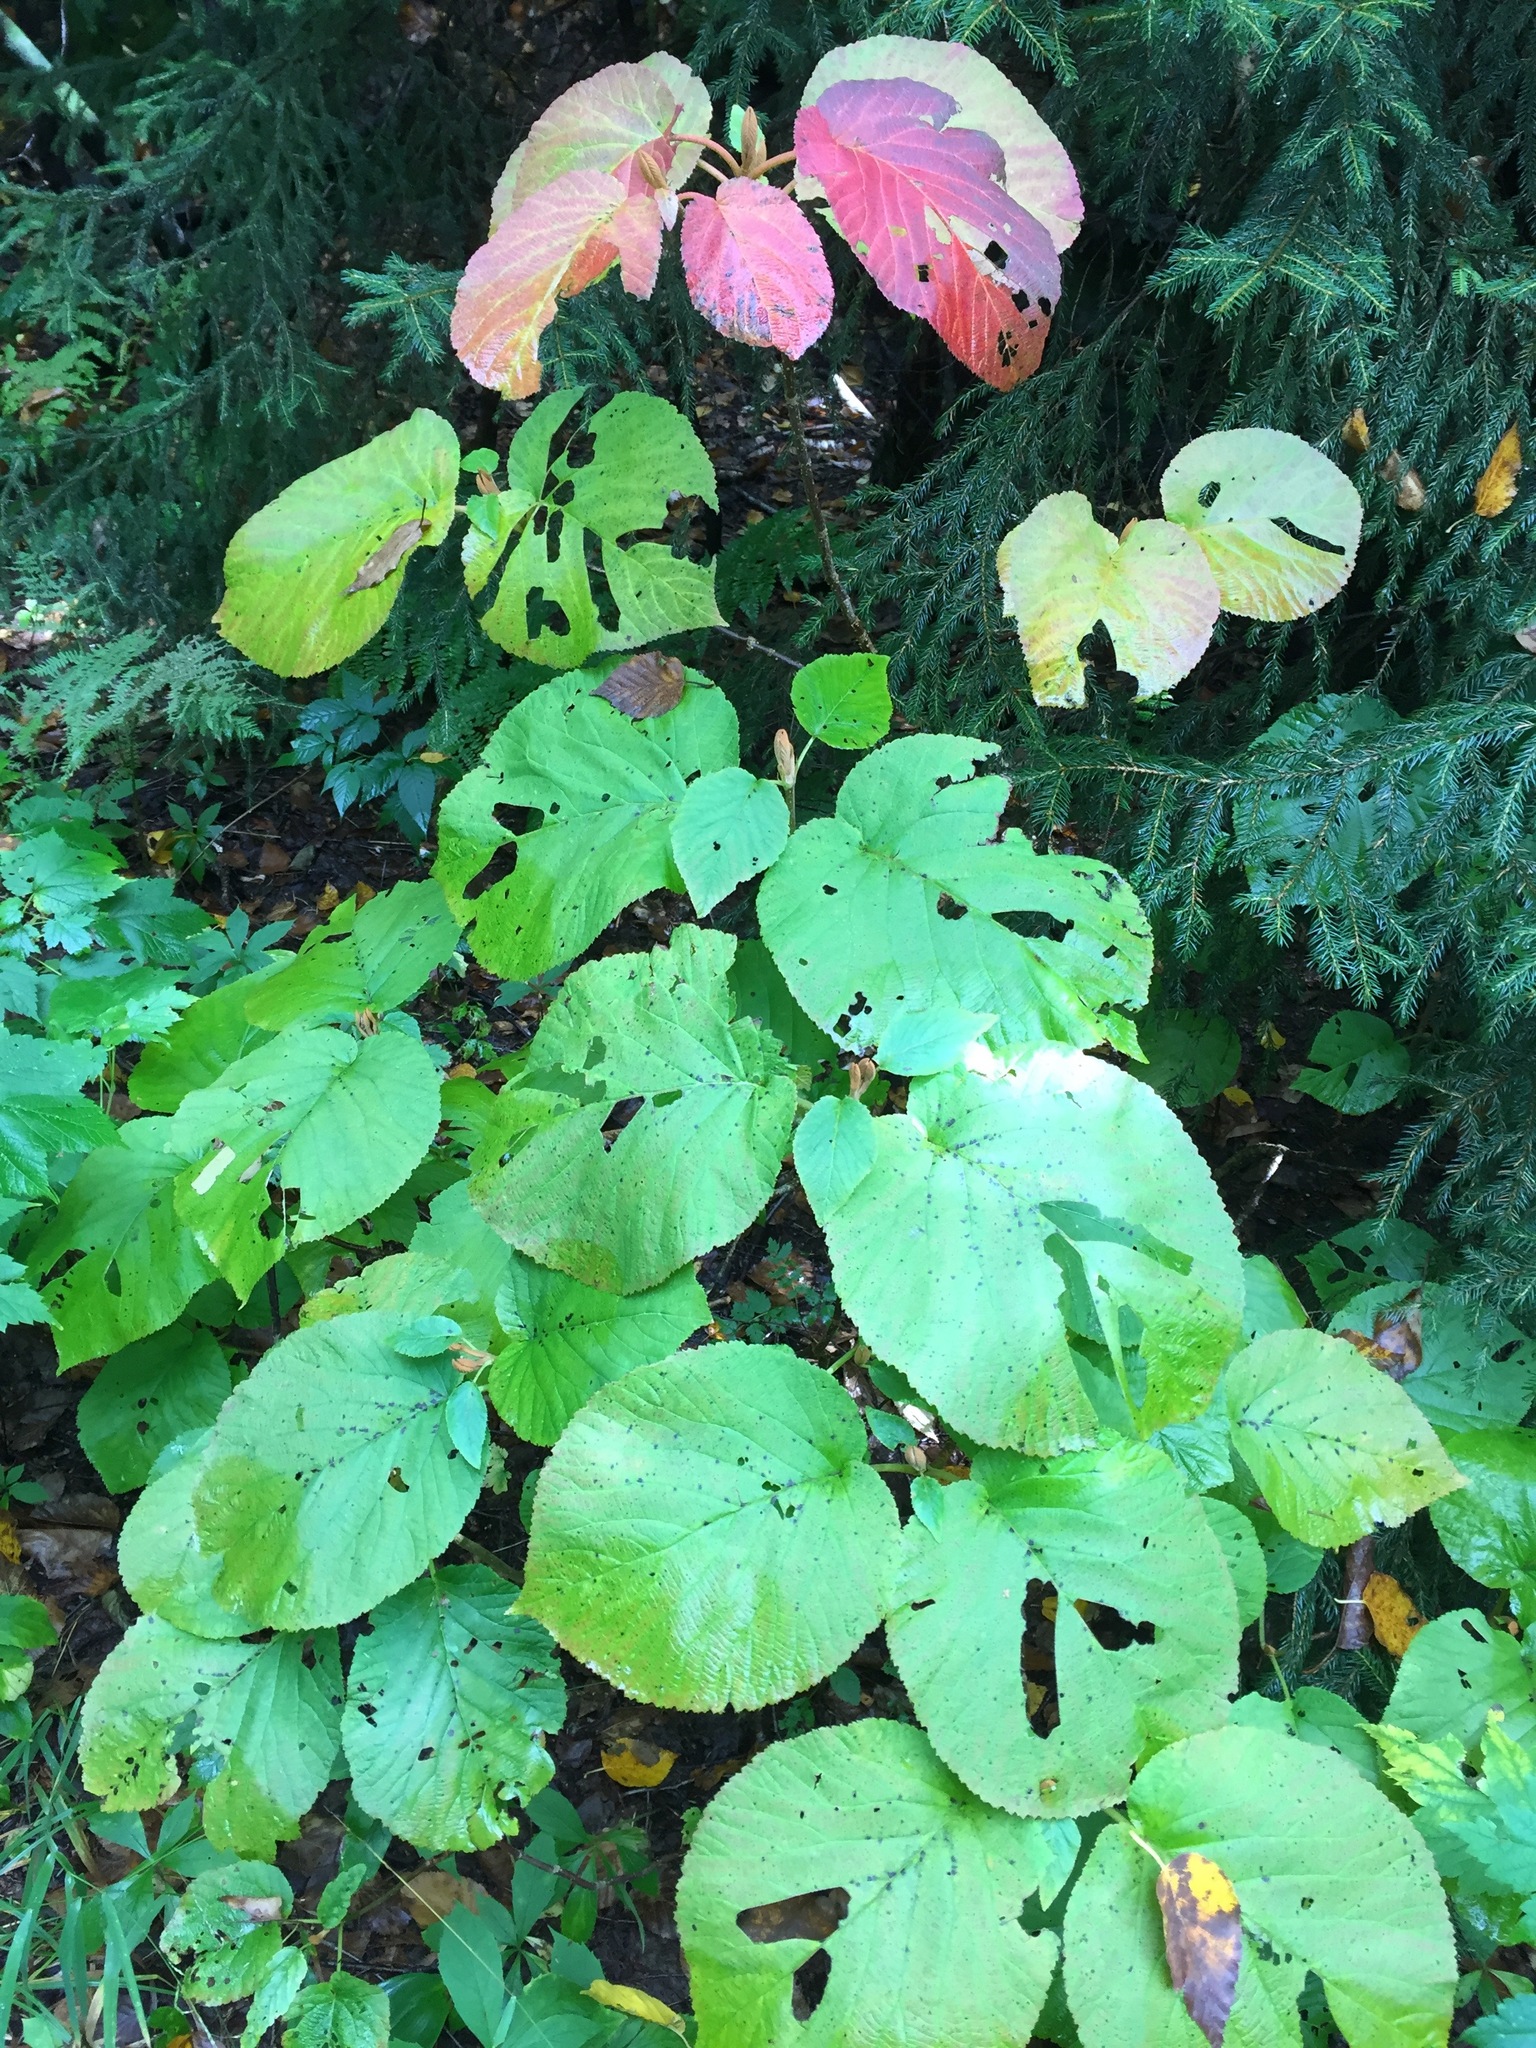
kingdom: Plantae
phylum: Tracheophyta
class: Magnoliopsida
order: Dipsacales
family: Viburnaceae
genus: Viburnum
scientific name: Viburnum lantanoides
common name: Hobblebush
